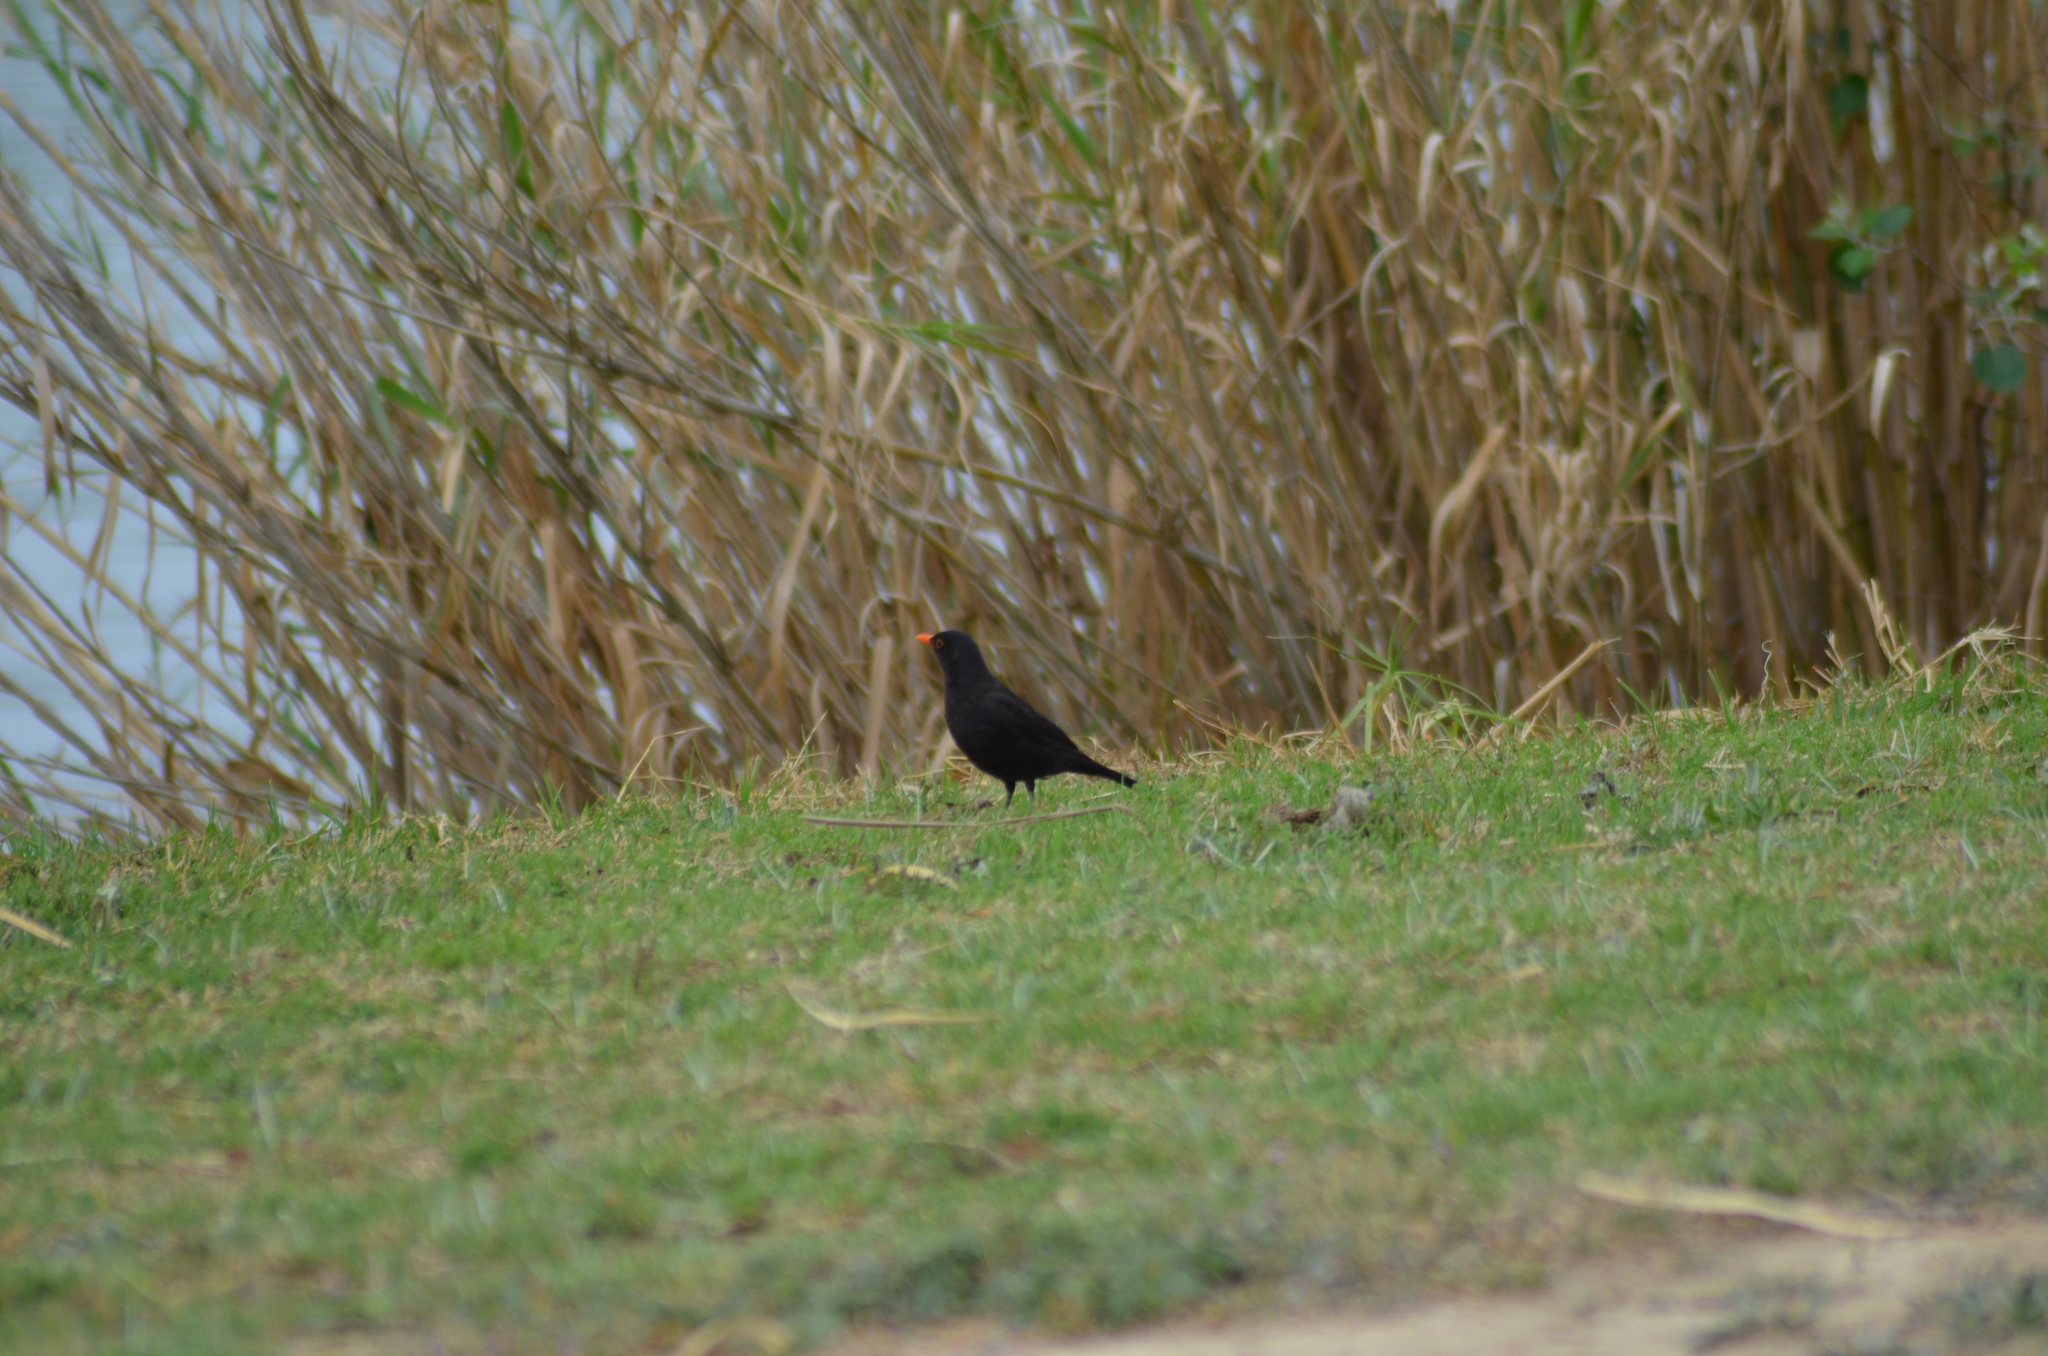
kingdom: Animalia
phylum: Chordata
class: Aves
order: Passeriformes
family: Turdidae
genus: Turdus
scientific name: Turdus merula
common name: Common blackbird
